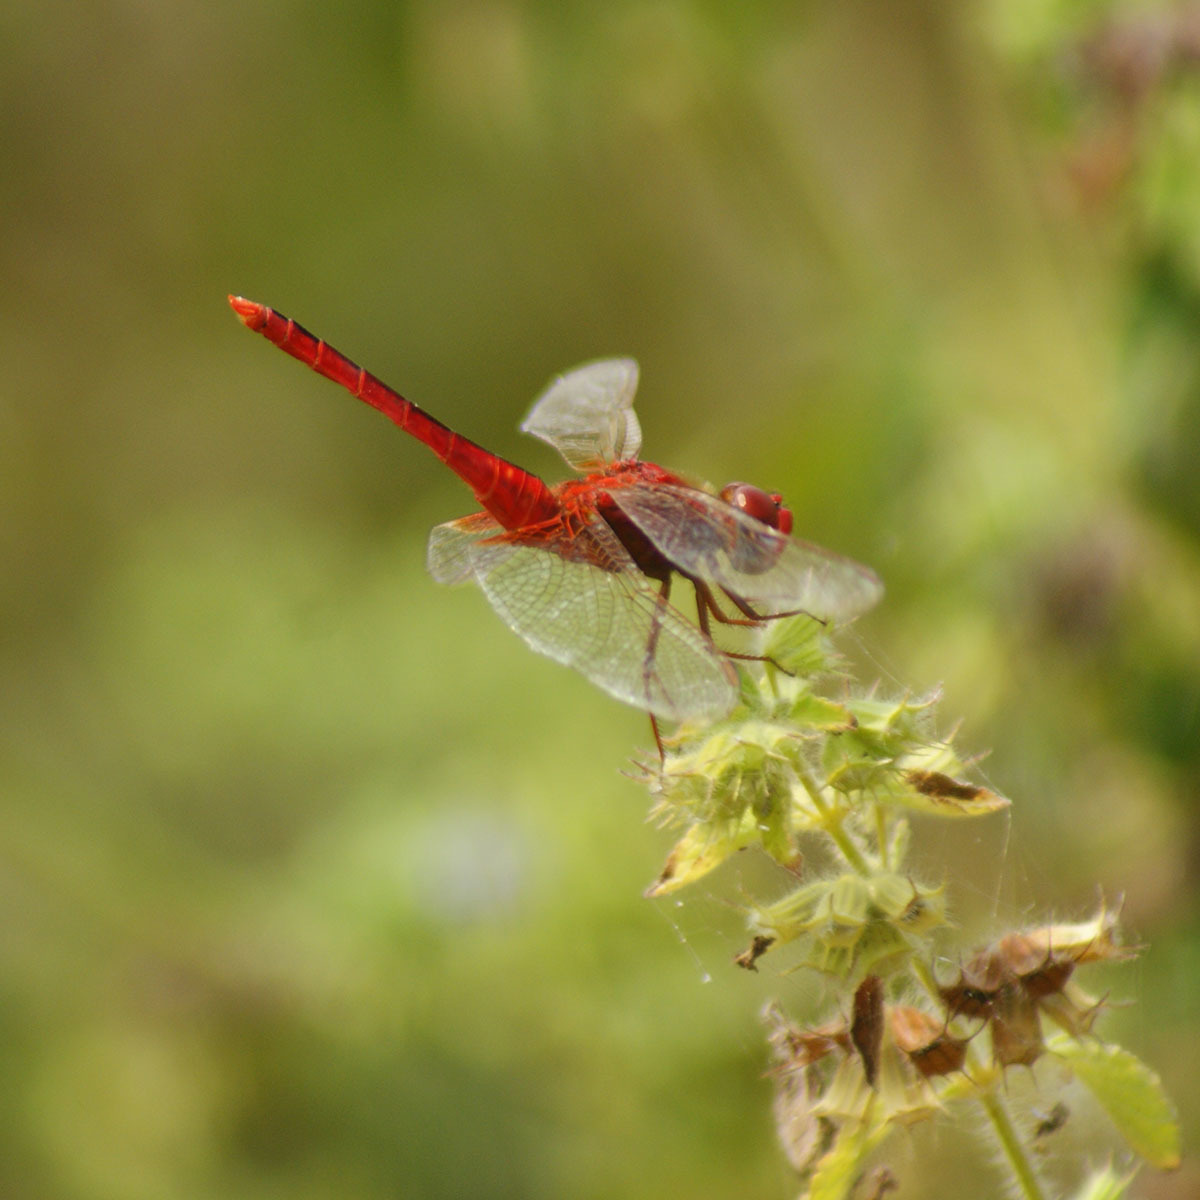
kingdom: Animalia
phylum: Arthropoda
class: Insecta
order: Odonata
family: Libellulidae
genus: Crocothemis
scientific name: Crocothemis servilia
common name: Scarlet skimmer
